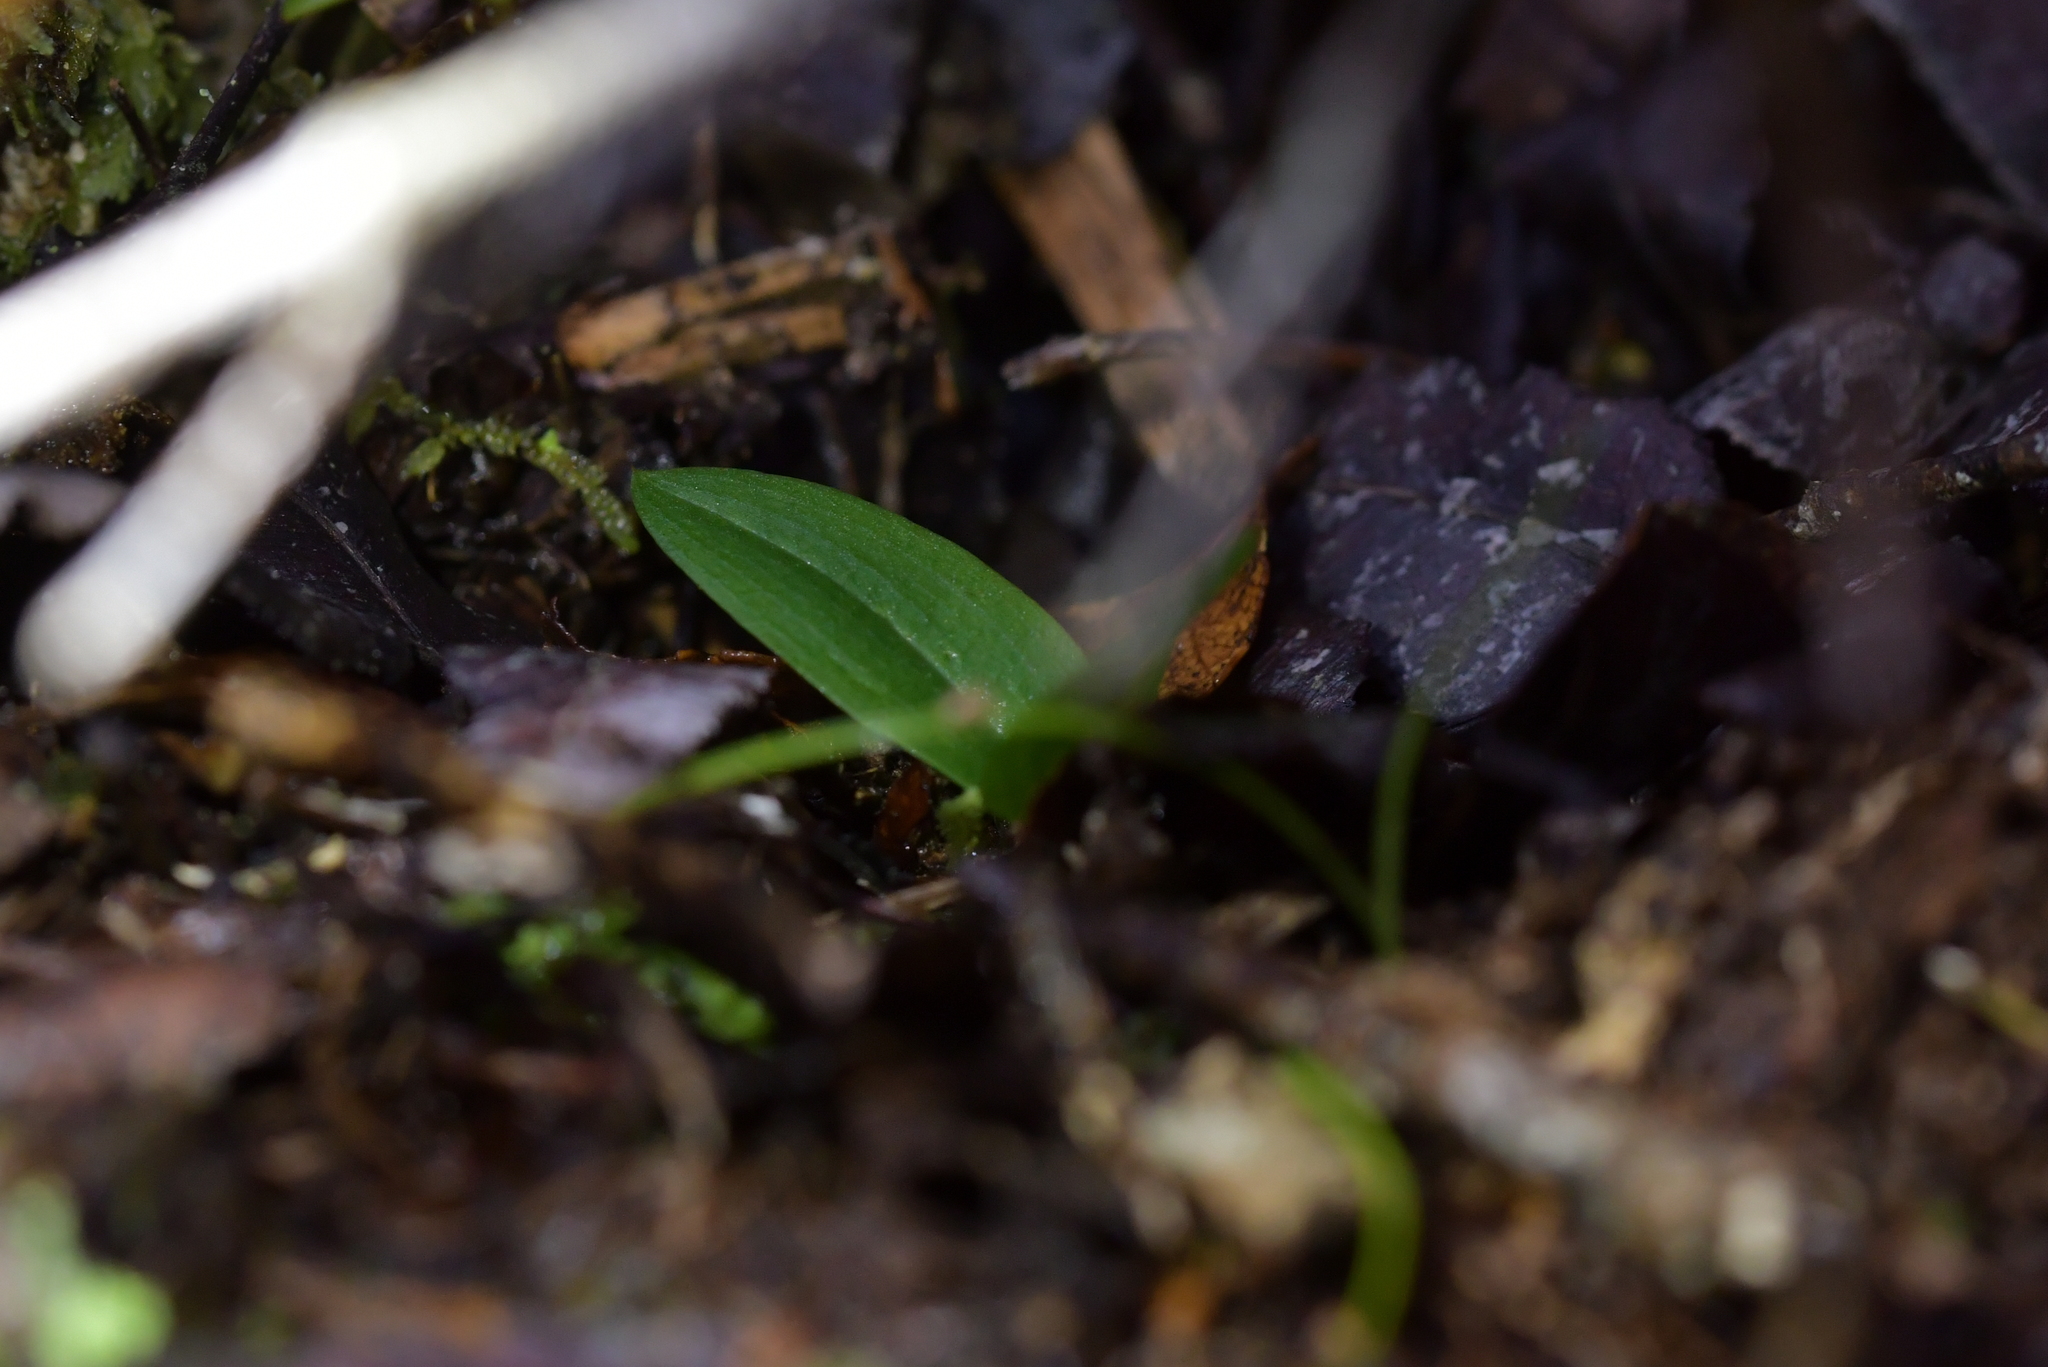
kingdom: Plantae
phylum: Tracheophyta
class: Liliopsida
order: Asparagales
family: Orchidaceae
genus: Chiloglottis
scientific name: Chiloglottis cornuta
